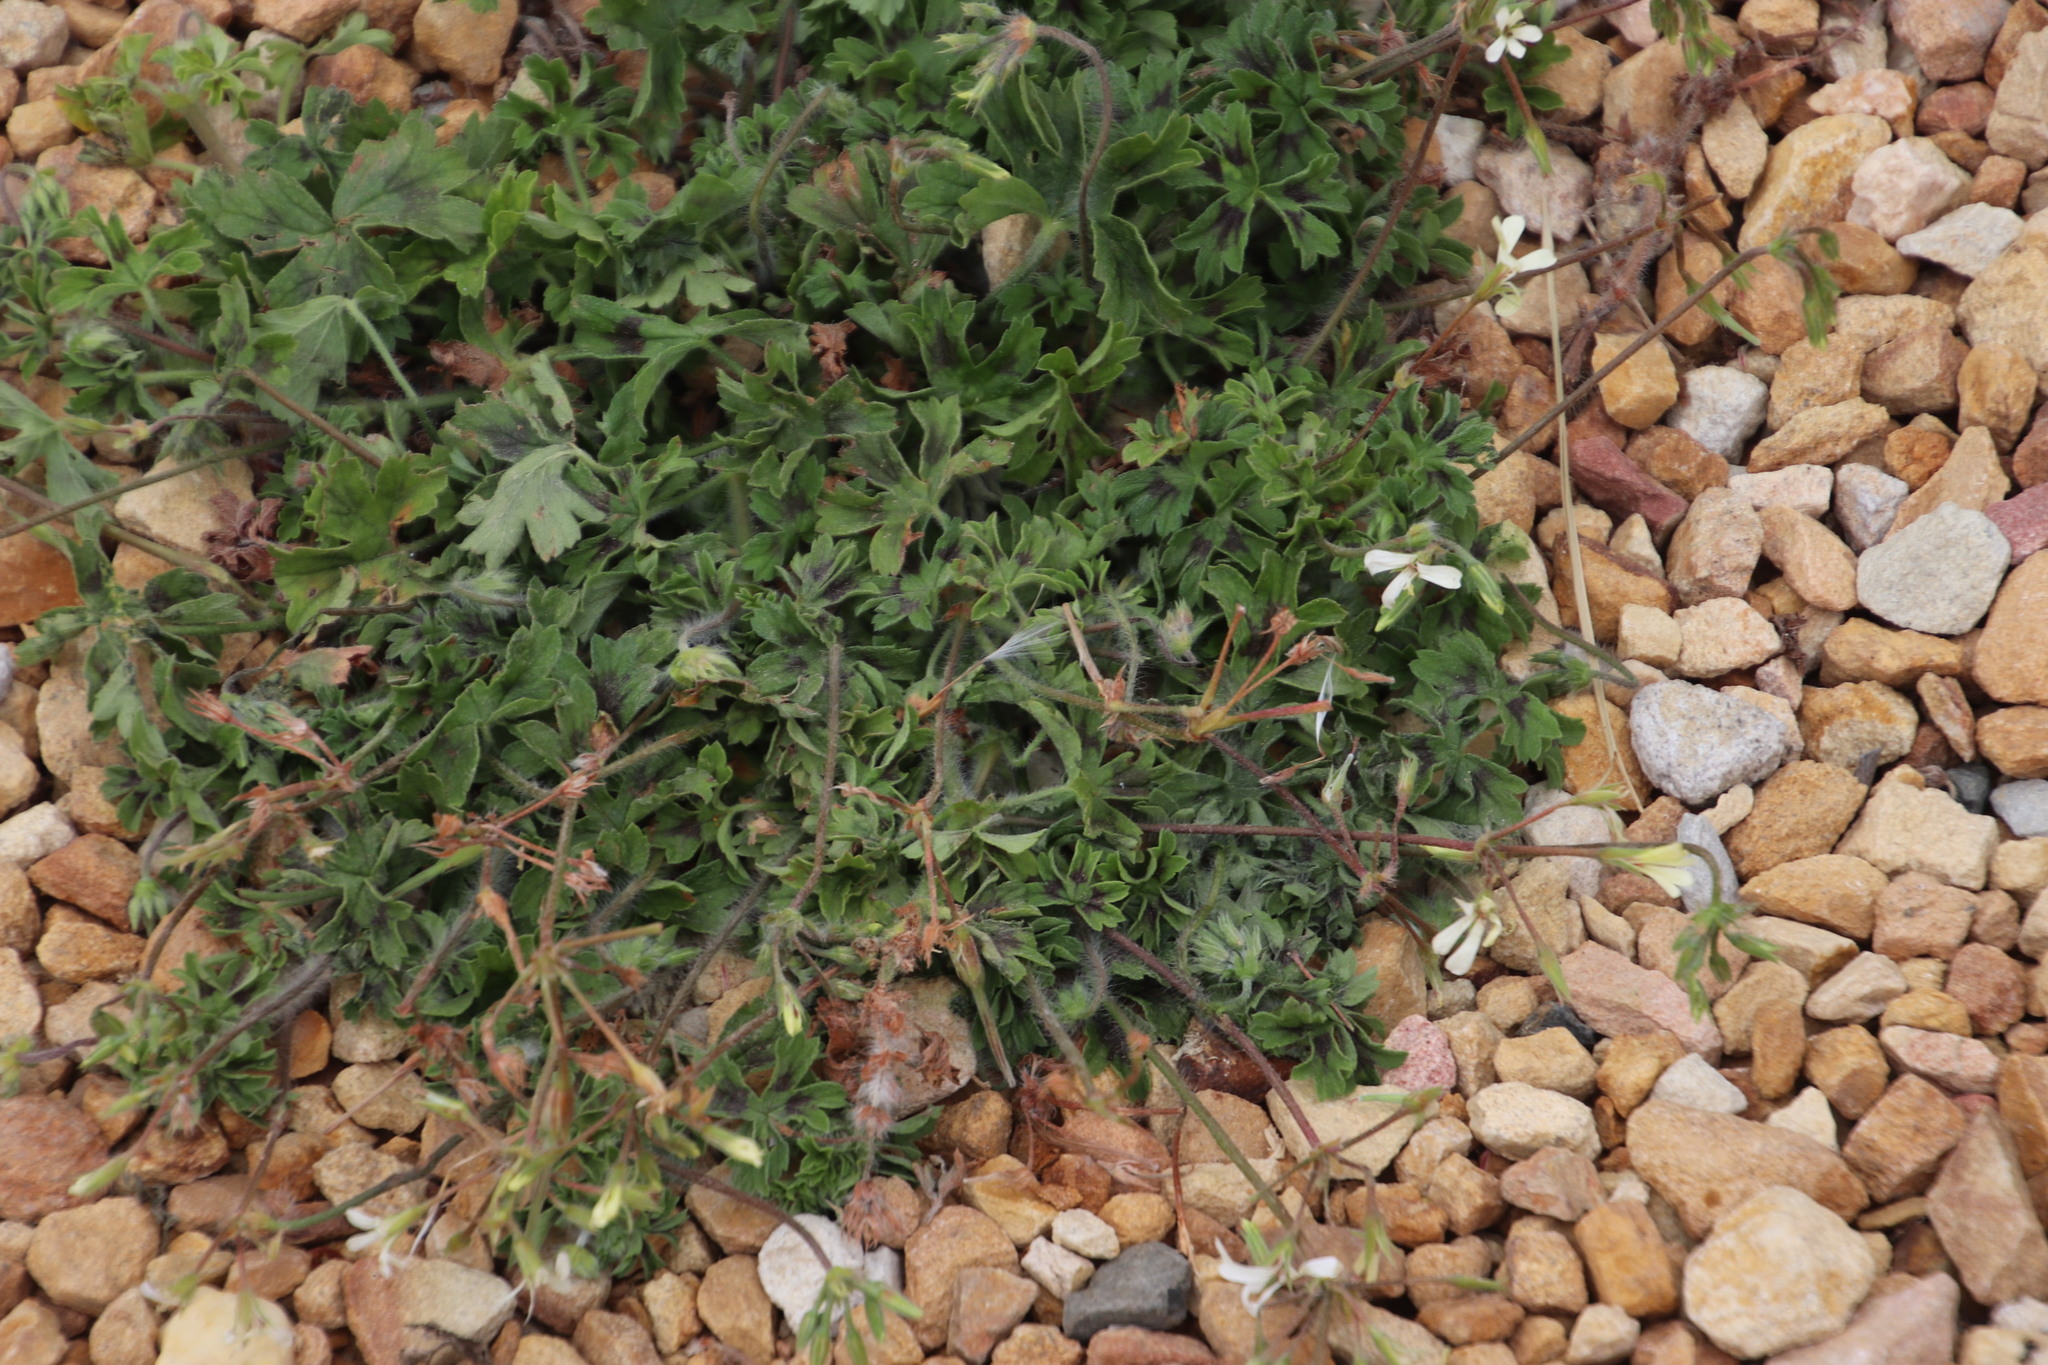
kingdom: Plantae
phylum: Tracheophyta
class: Magnoliopsida
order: Geraniales
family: Geraniaceae
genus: Pelargonium
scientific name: Pelargonium alchemilloides
